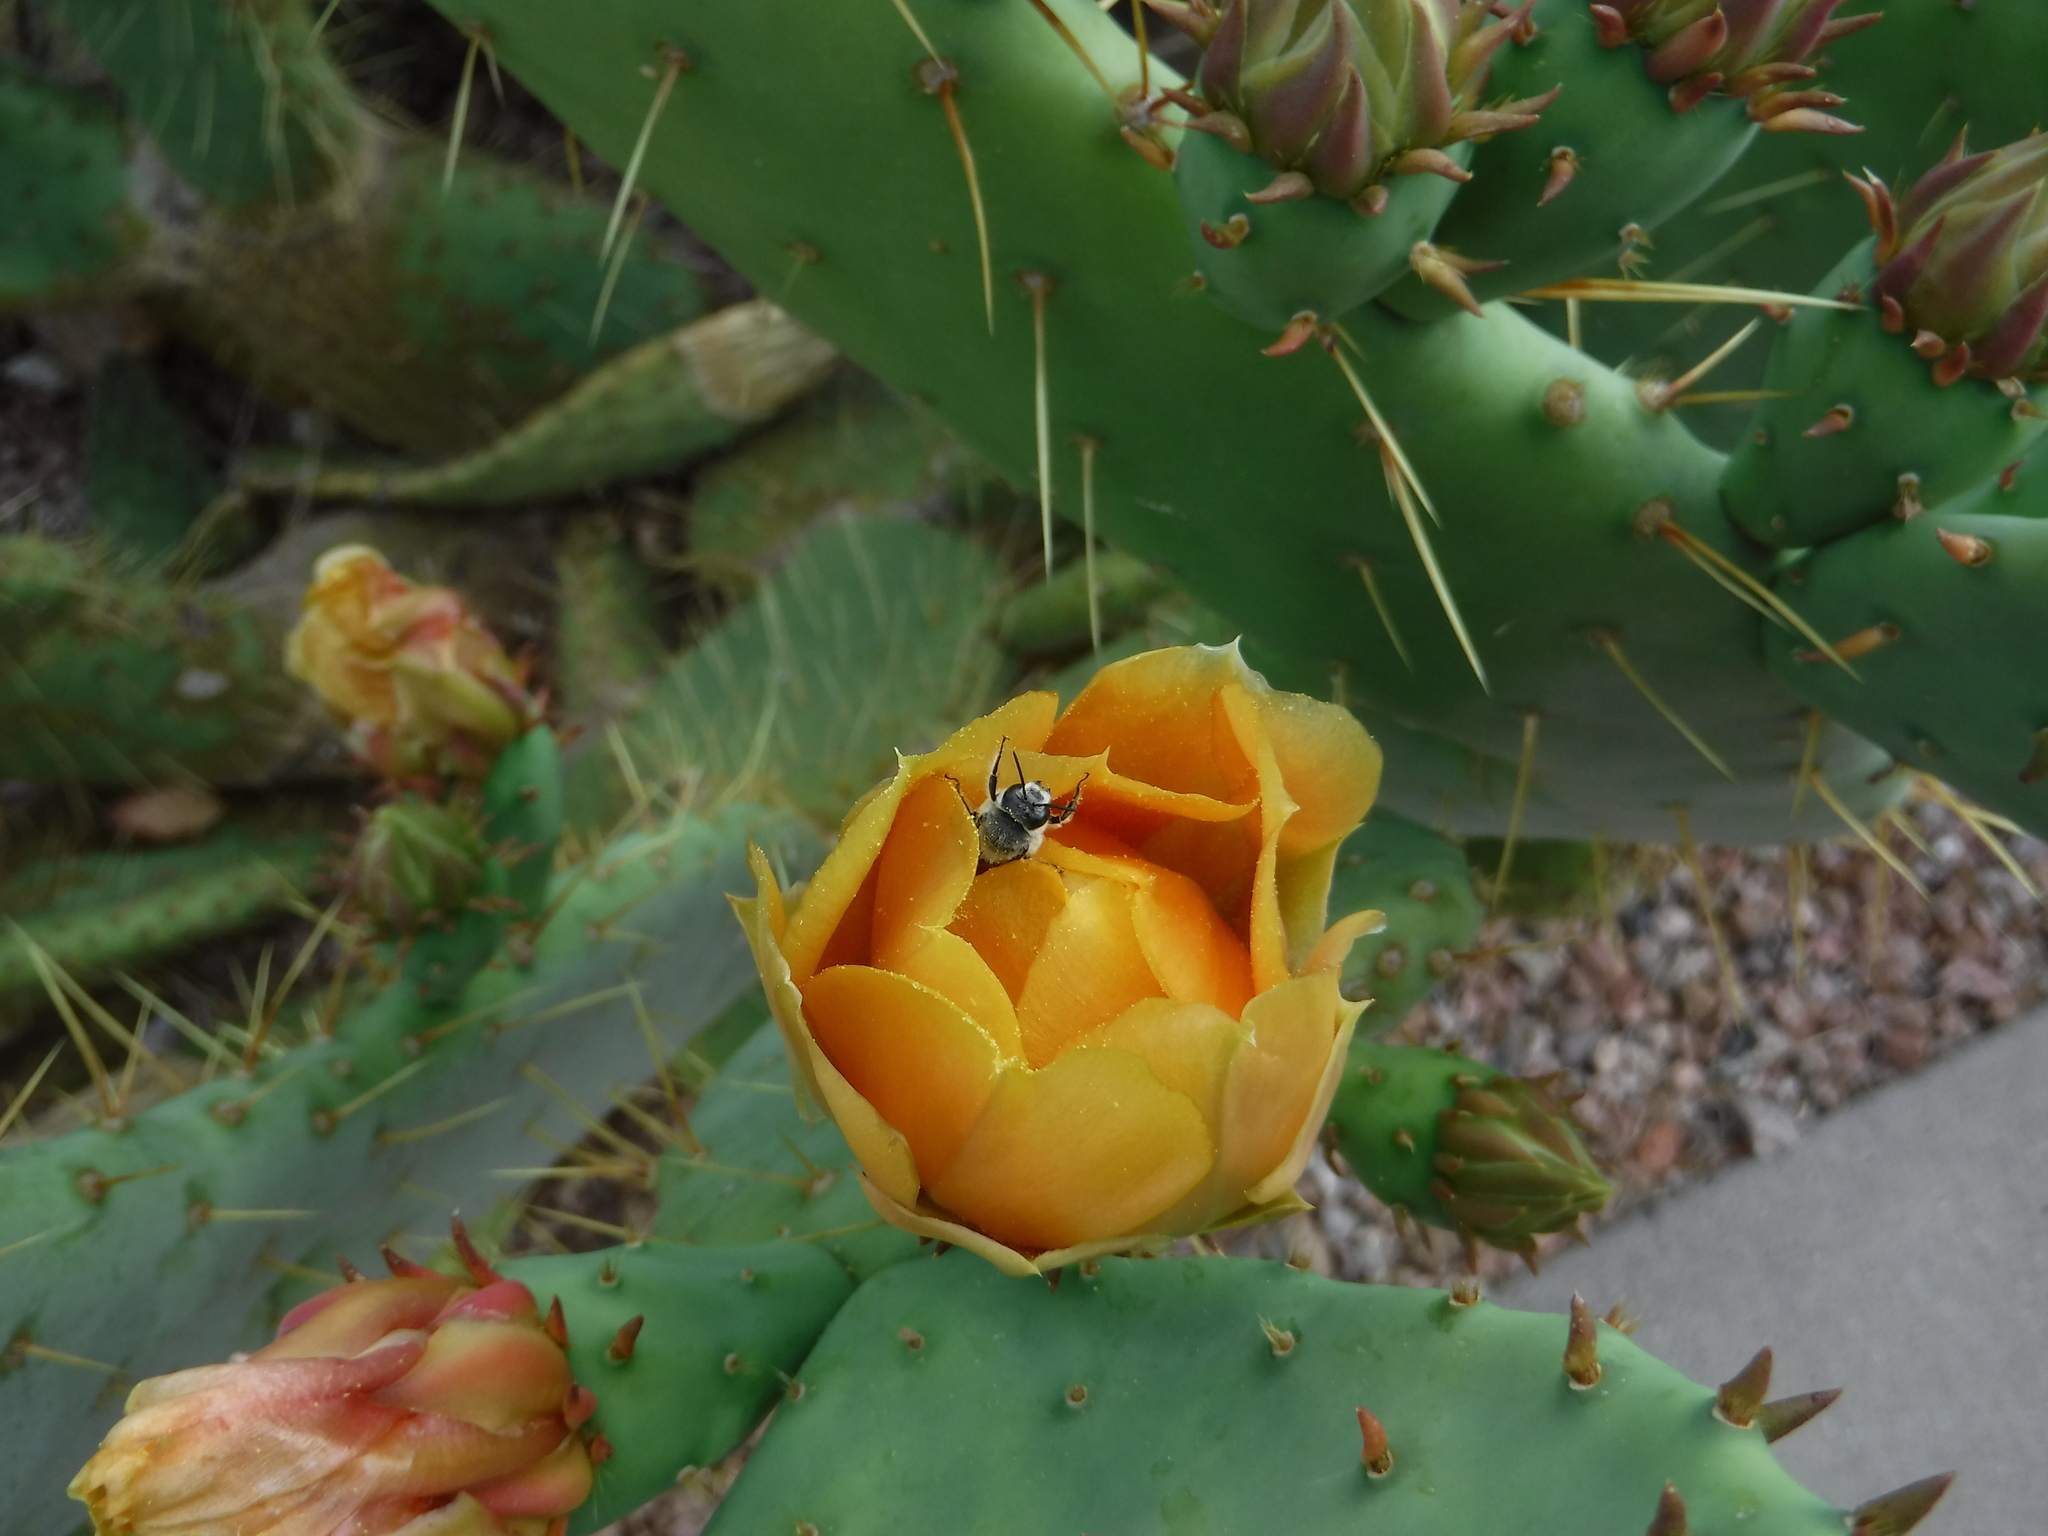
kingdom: Animalia
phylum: Arthropoda
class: Insecta
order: Hymenoptera
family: Megachilidae
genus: Lithurgopsis
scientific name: Lithurgopsis apicalis
